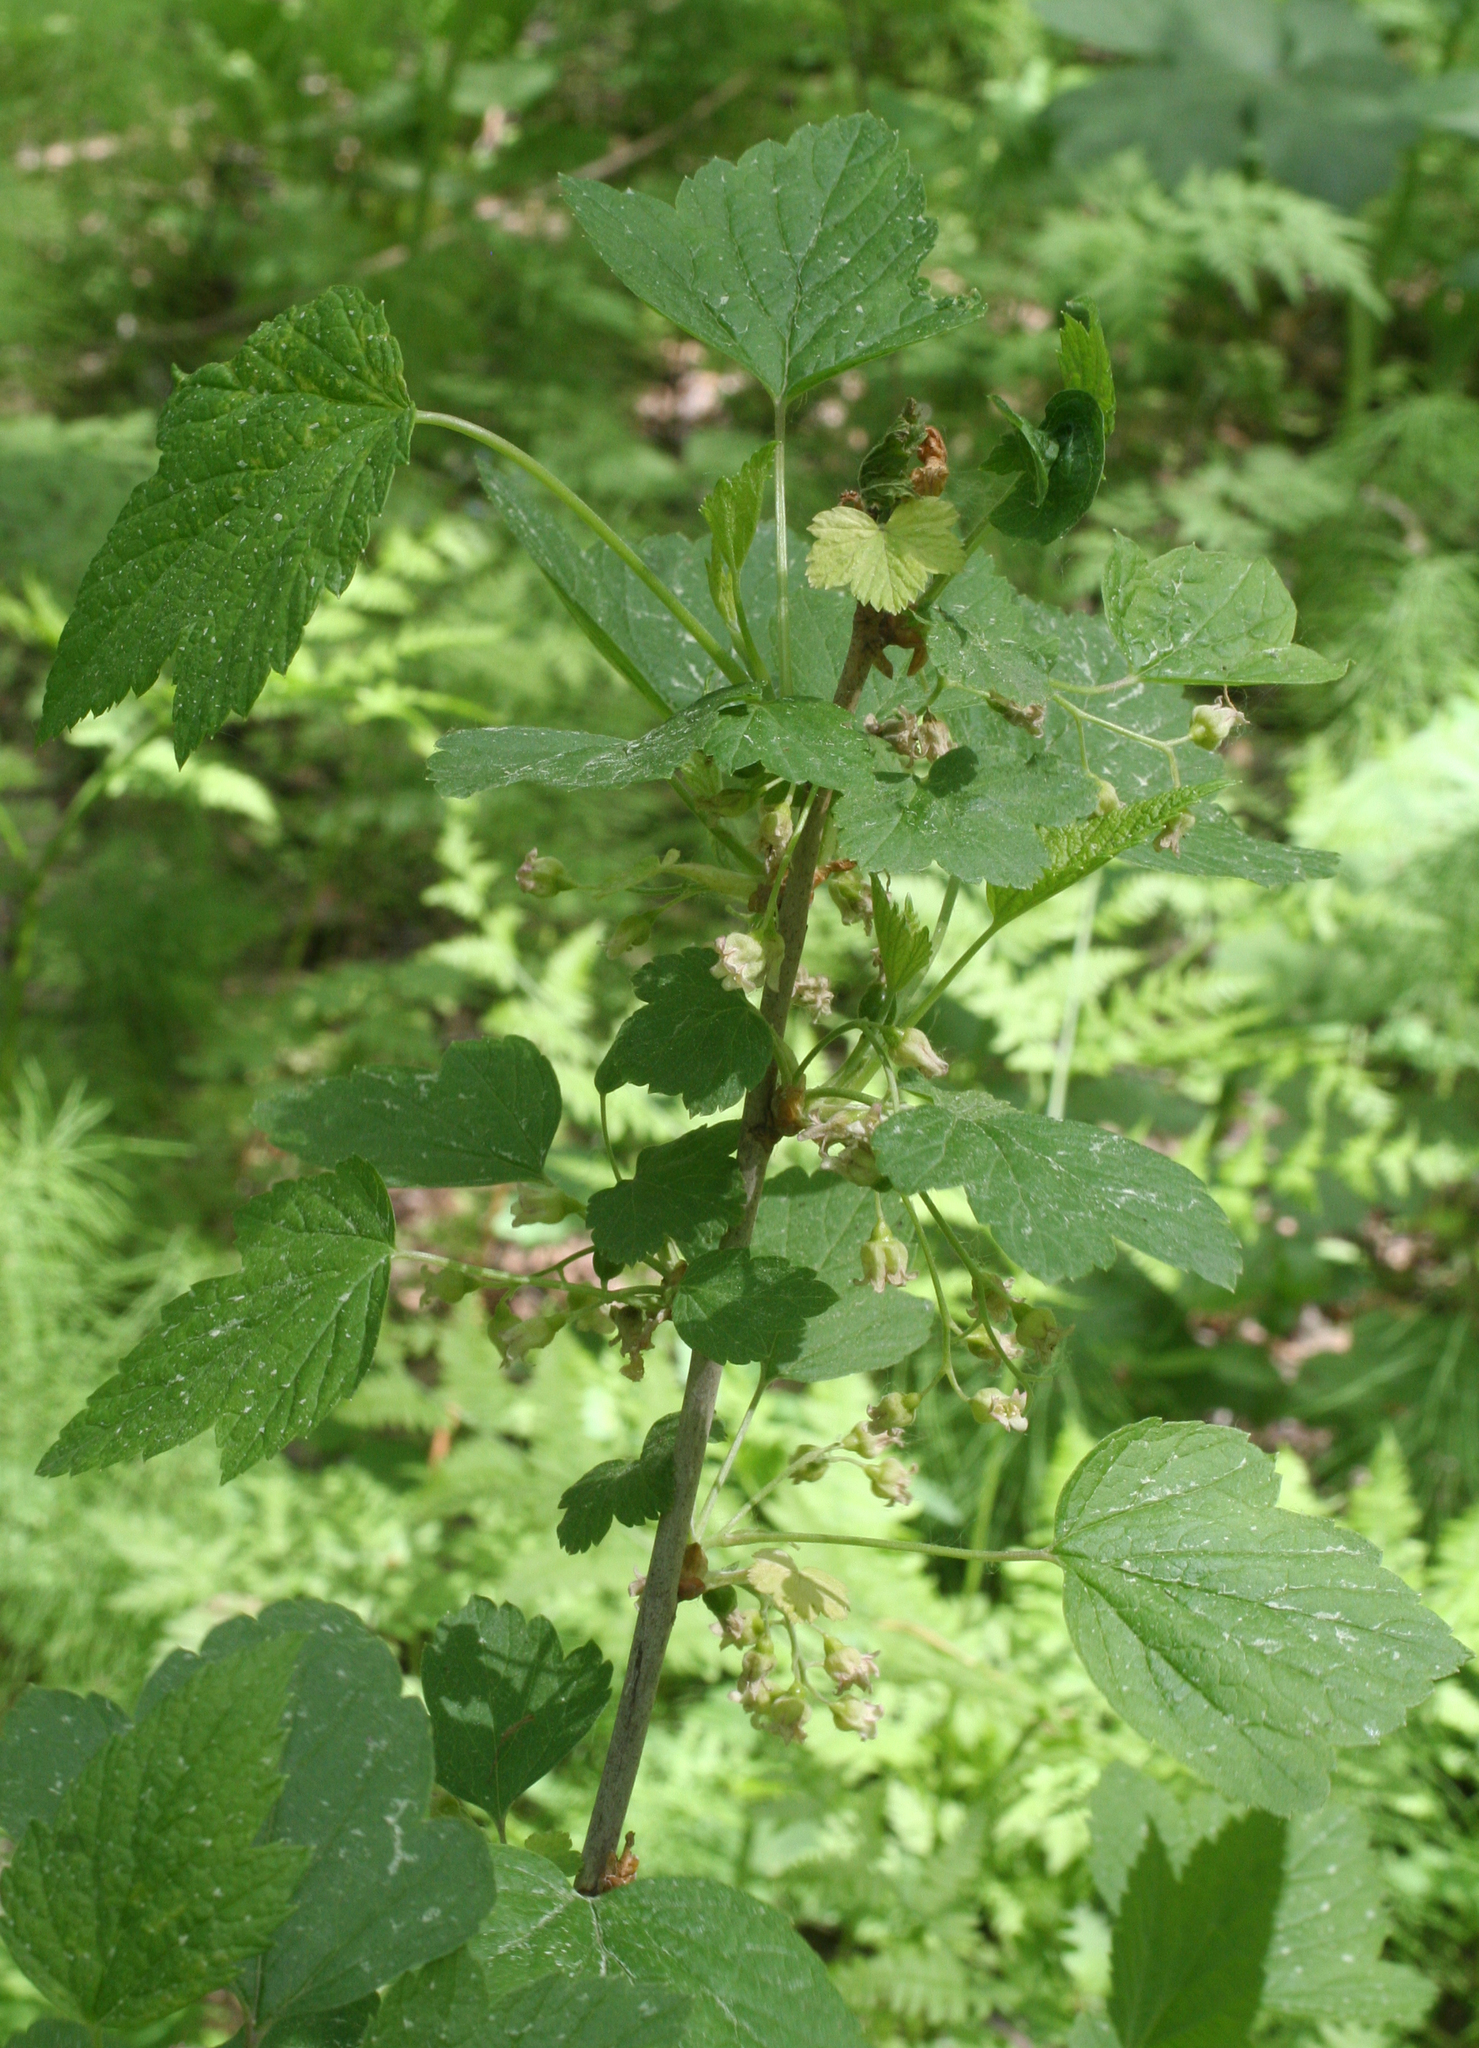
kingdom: Plantae
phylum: Tracheophyta
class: Magnoliopsida
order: Saxifragales
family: Grossulariaceae
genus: Ribes
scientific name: Ribes nigrum
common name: Black currant
